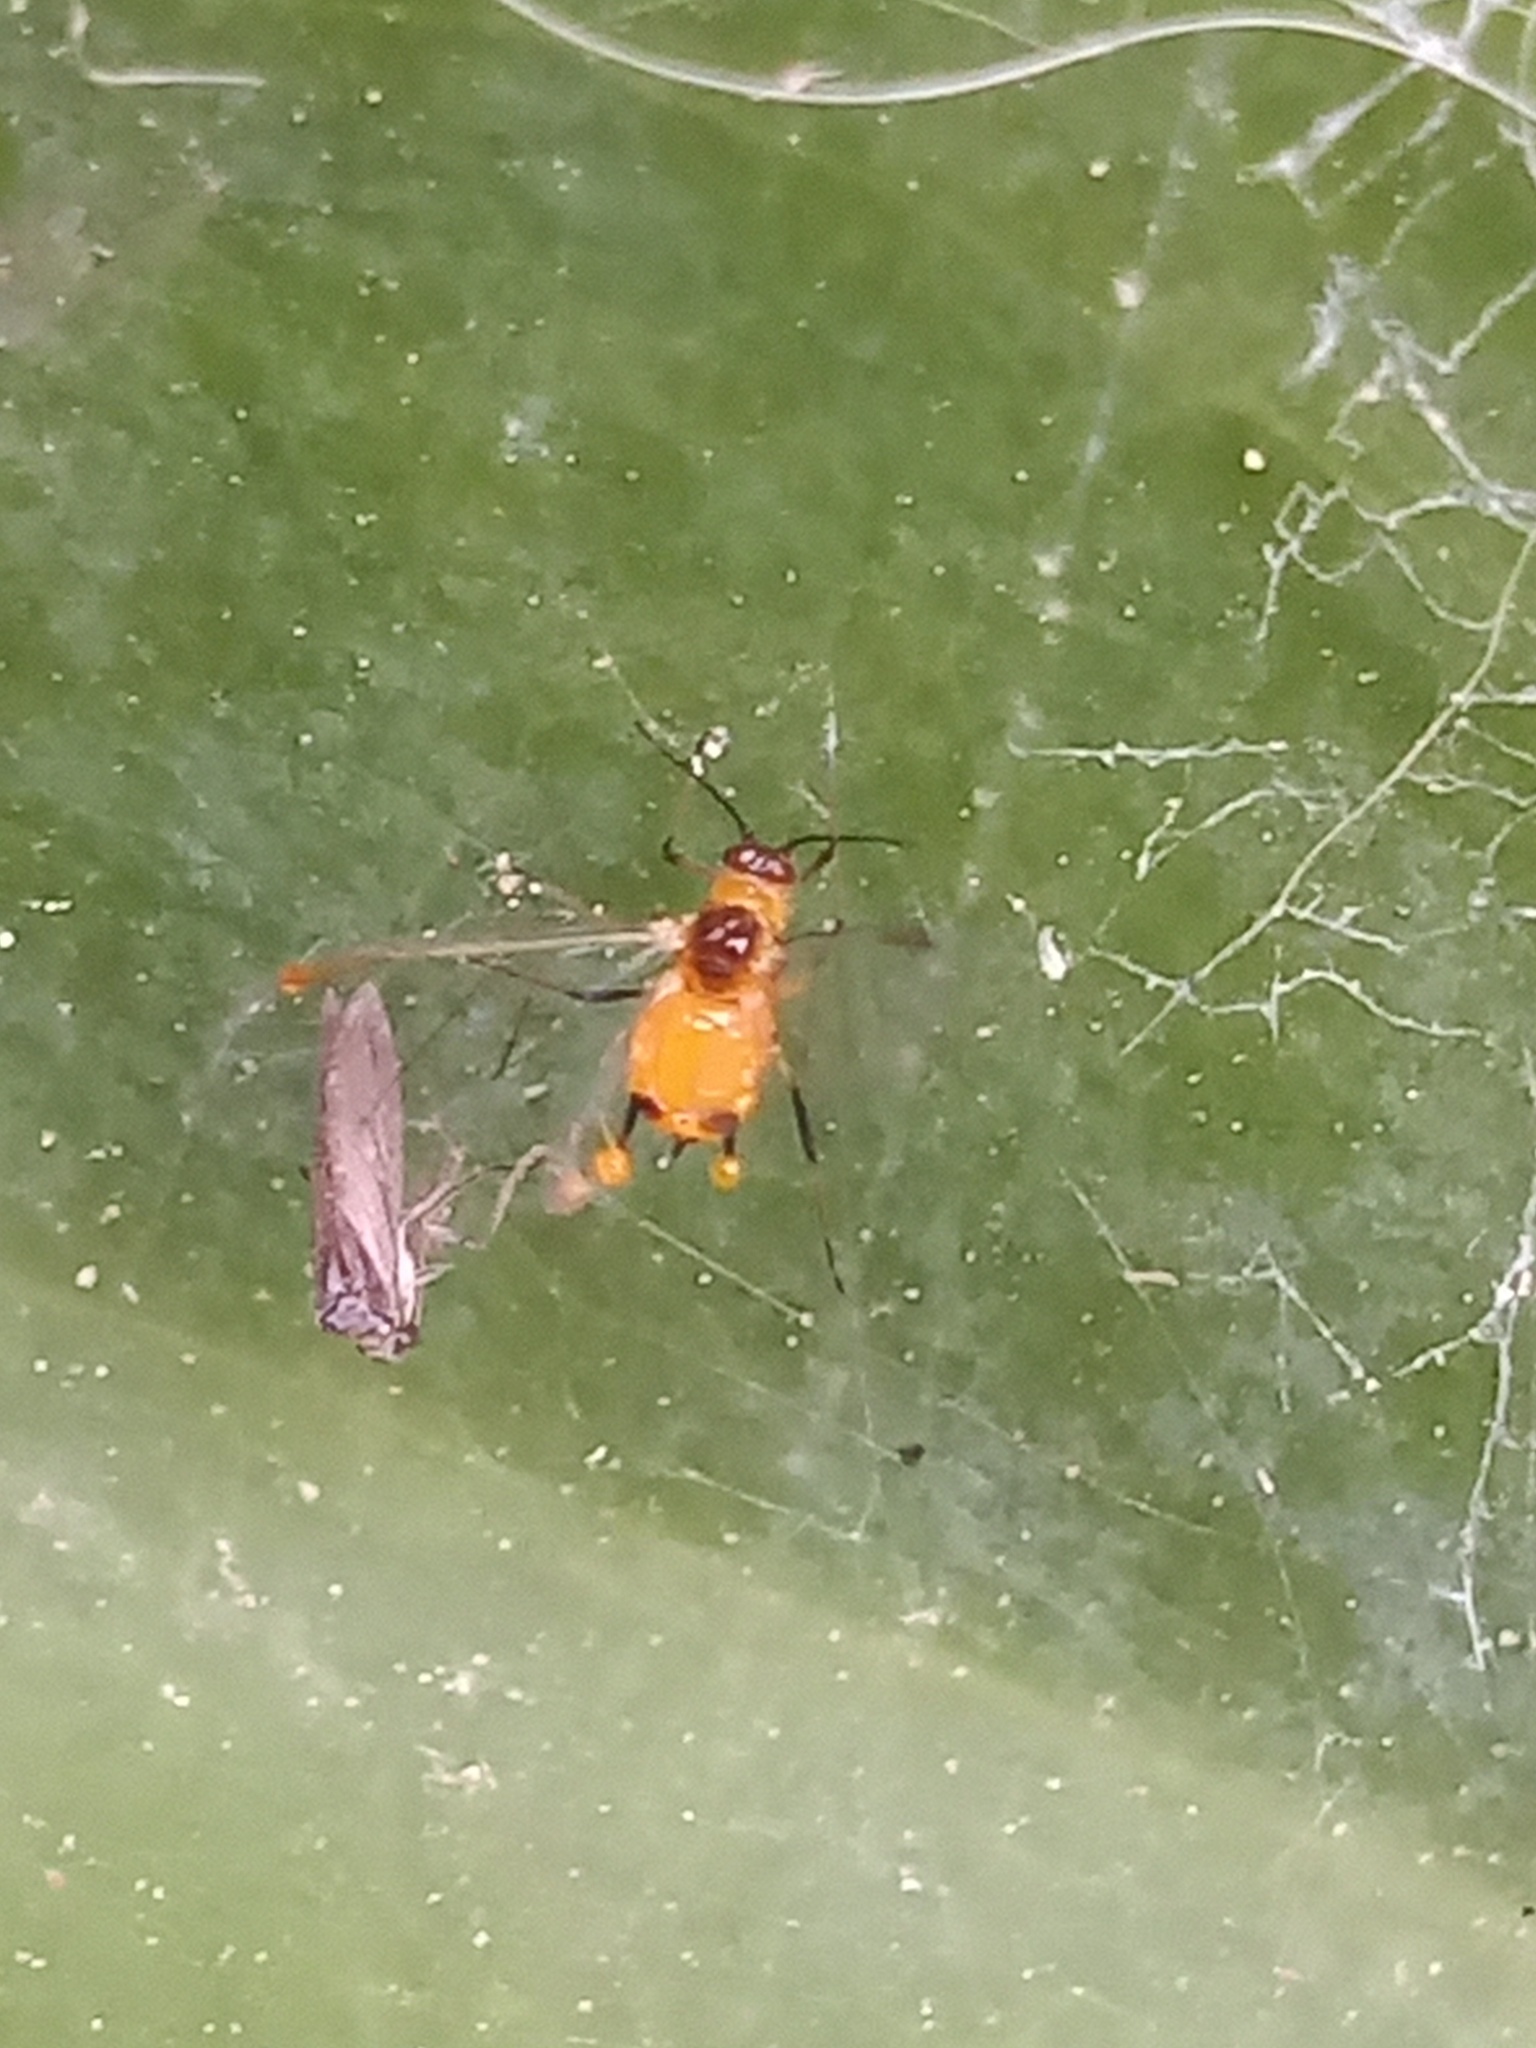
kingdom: Animalia
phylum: Arthropoda
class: Insecta
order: Hemiptera
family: Aphididae
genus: Aphis
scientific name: Aphis nerii
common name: Oleander aphid
